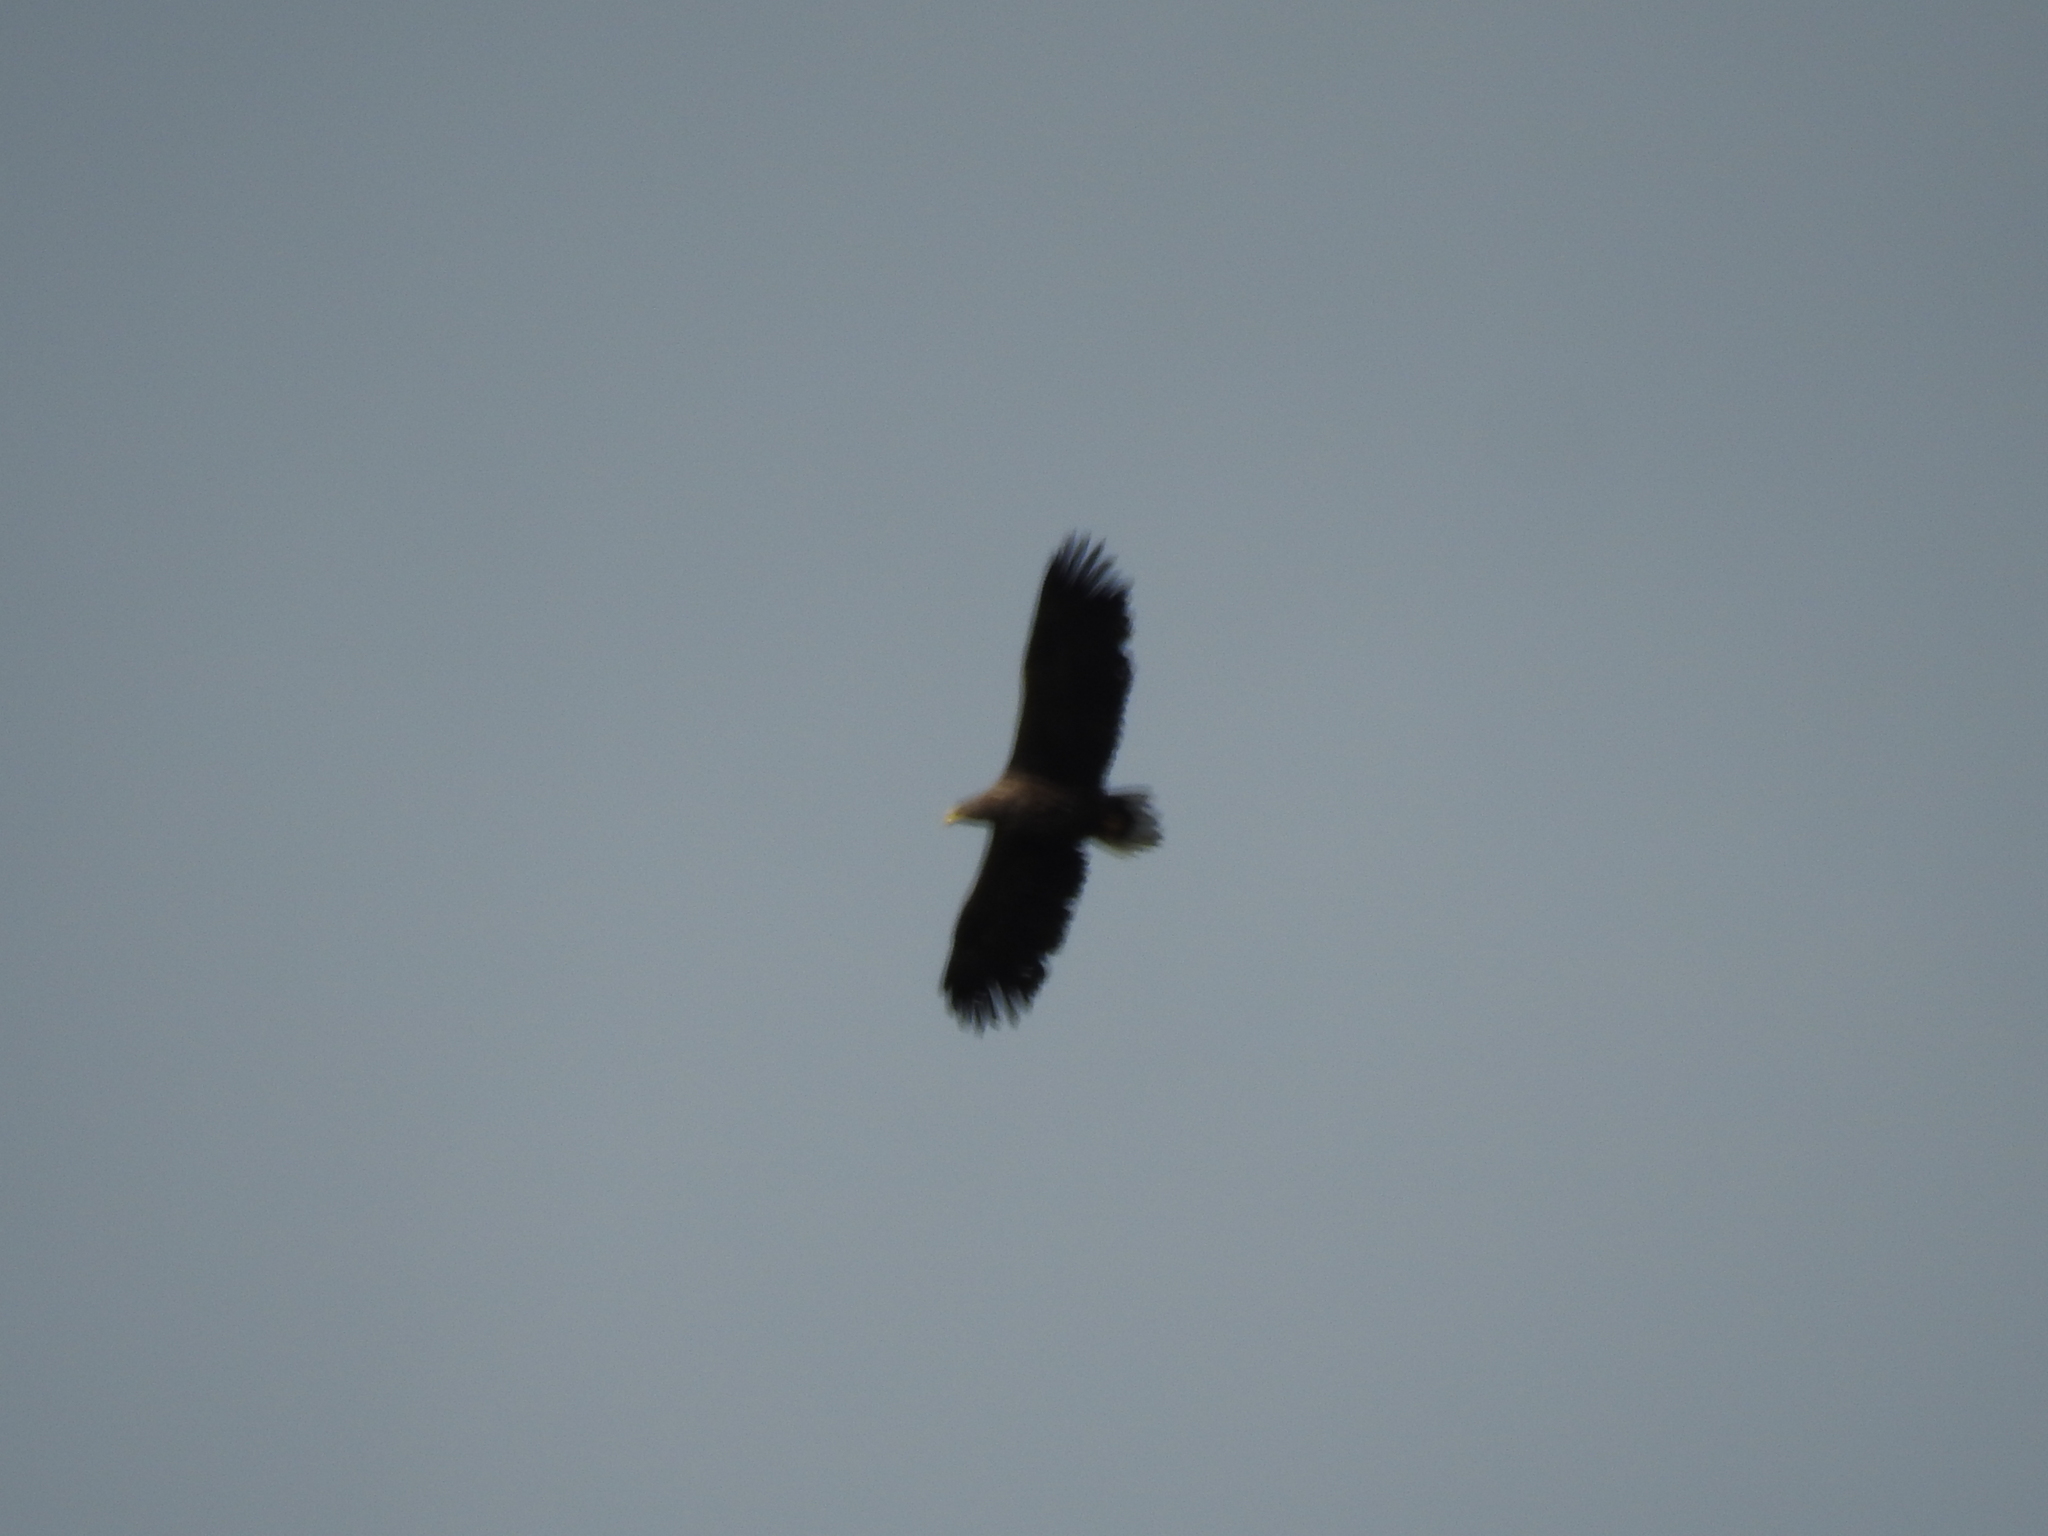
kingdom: Animalia
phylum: Chordata
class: Aves
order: Accipitriformes
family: Accipitridae
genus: Haliaeetus
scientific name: Haliaeetus albicilla
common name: White-tailed eagle
